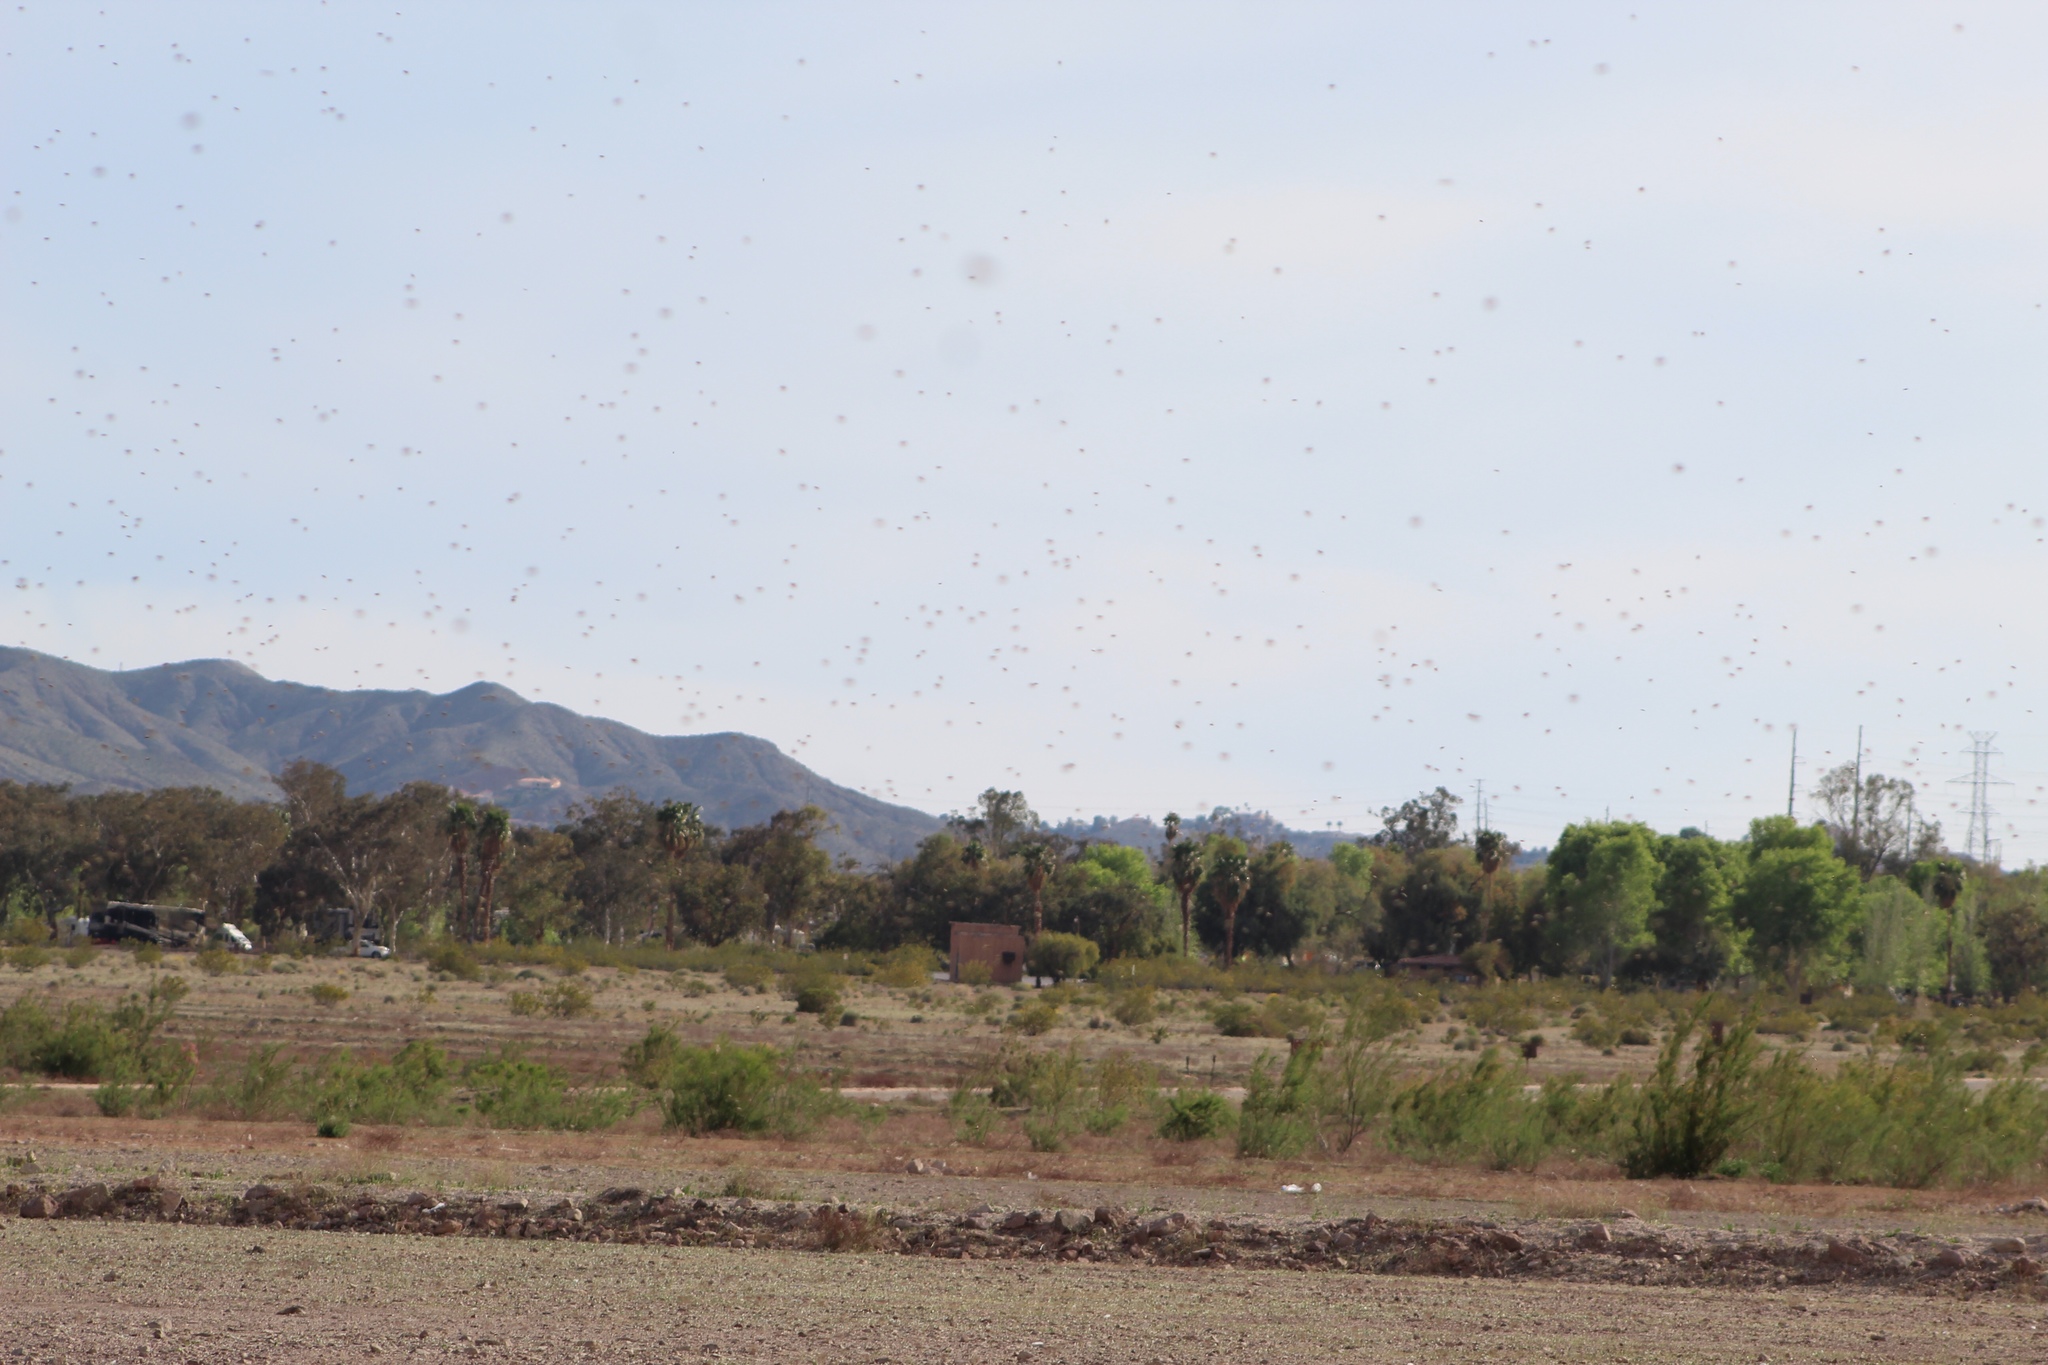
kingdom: Animalia
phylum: Arthropoda
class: Insecta
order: Hymenoptera
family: Apidae
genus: Apis
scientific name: Apis mellifera
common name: Honey bee
